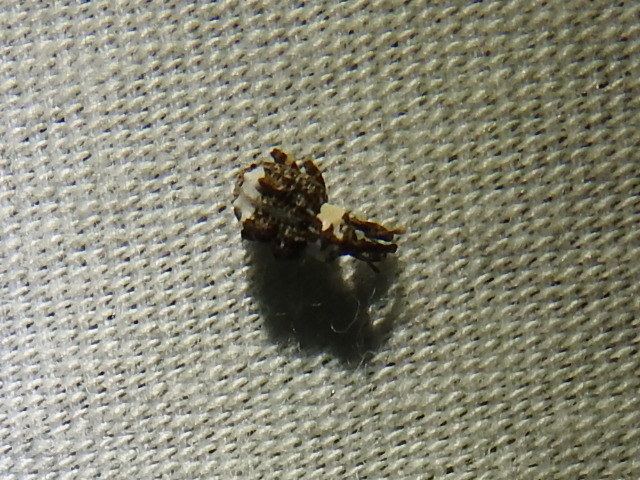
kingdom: Animalia
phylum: Arthropoda
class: Insecta
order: Coleoptera
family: Curculionidae
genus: Conotrachelus
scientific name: Conotrachelus belfragei
